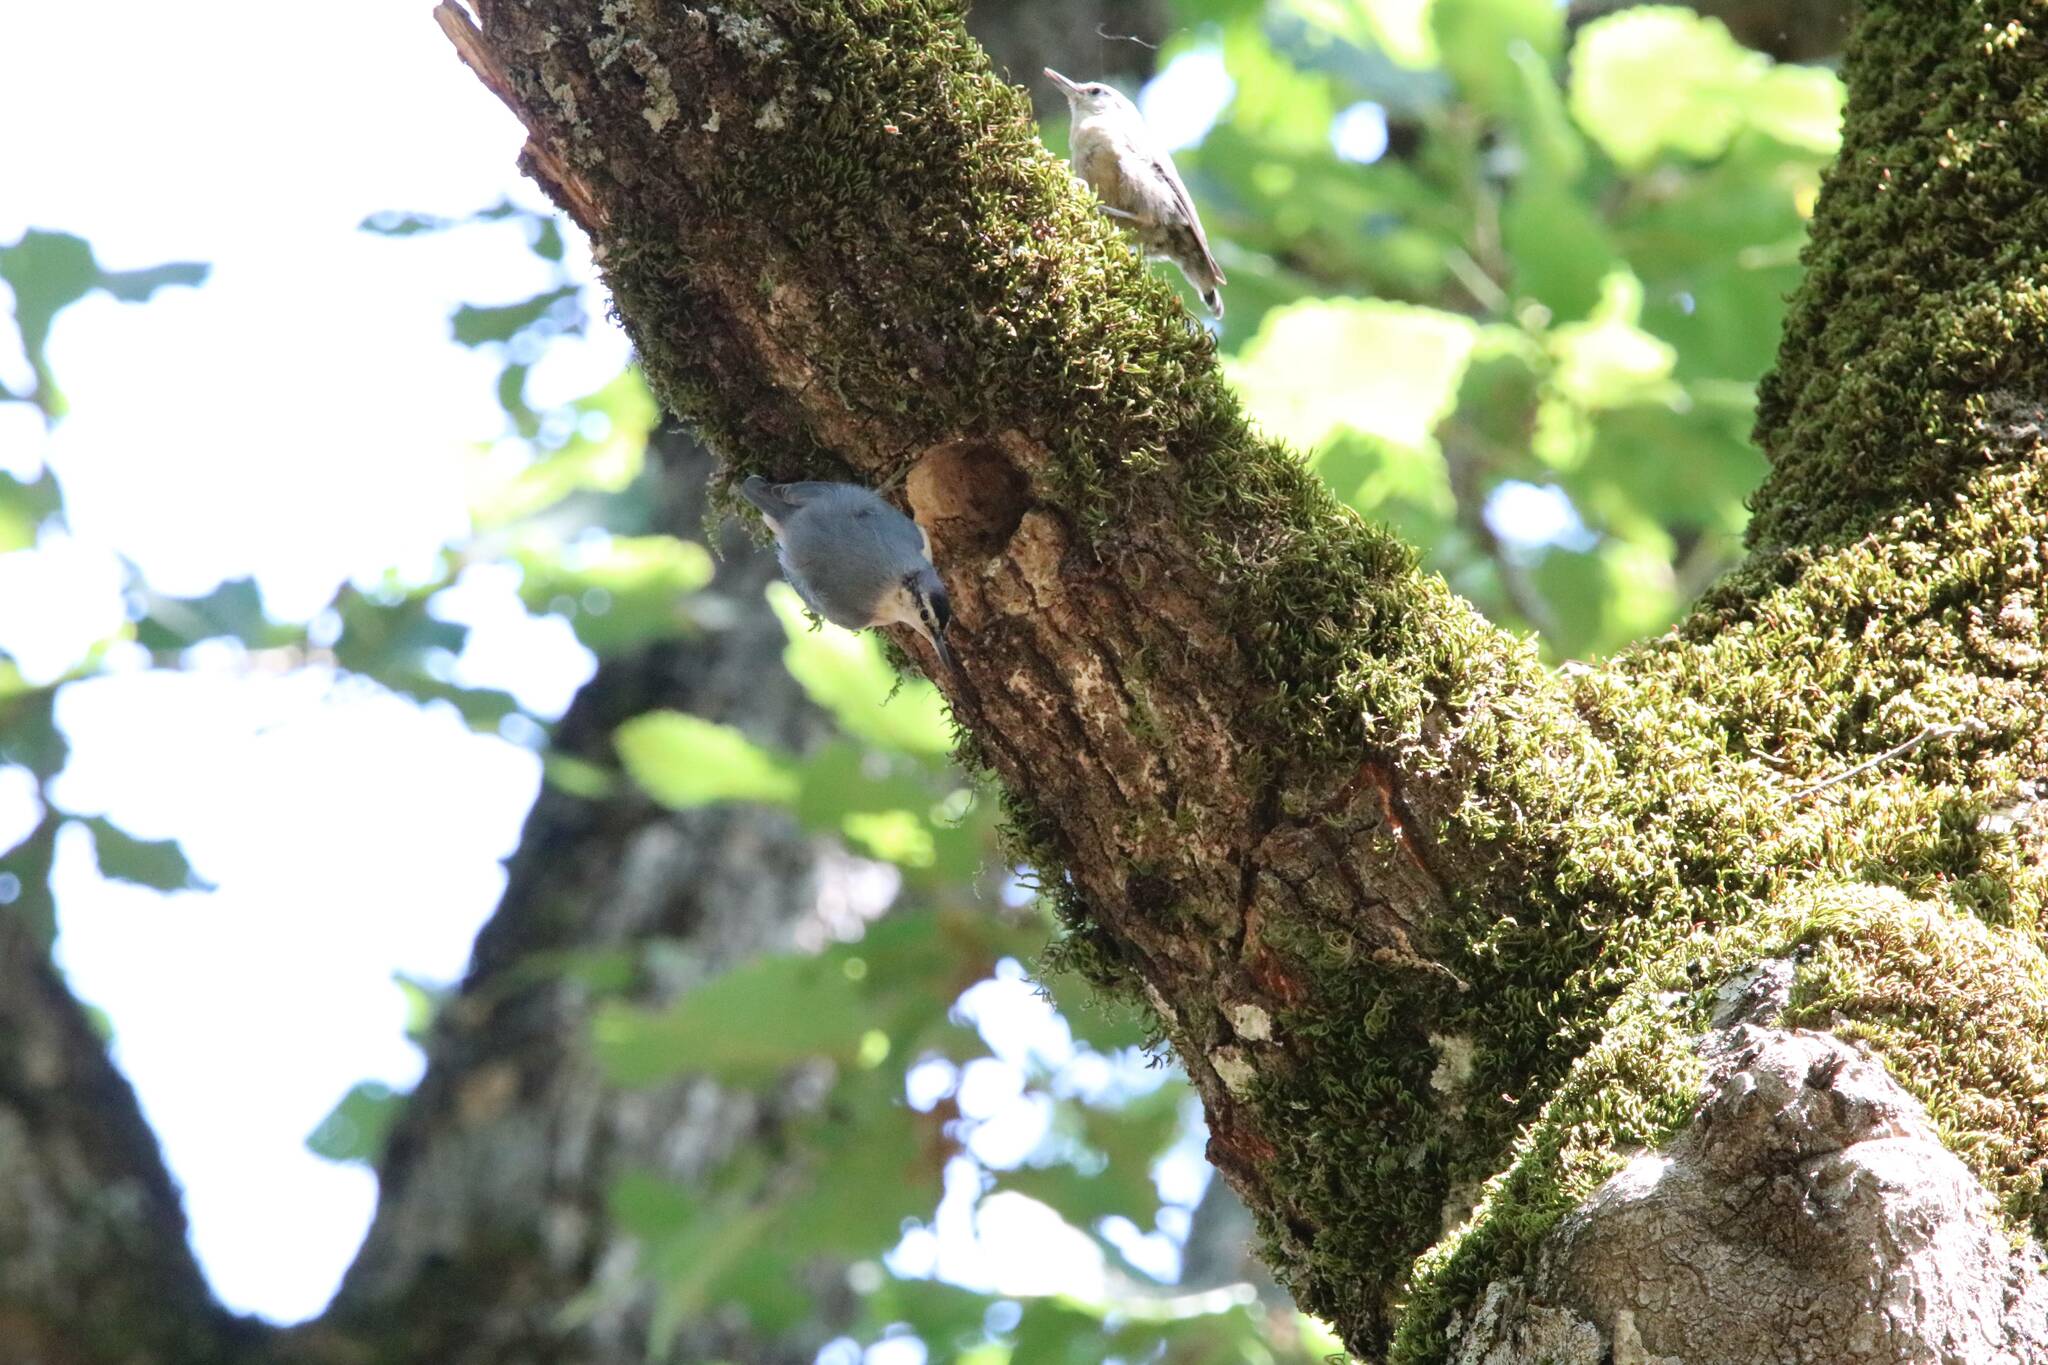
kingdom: Animalia
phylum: Chordata
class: Aves
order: Passeriformes
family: Sittidae
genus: Sitta
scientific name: Sitta ledanti
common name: Algerian nuthatch
